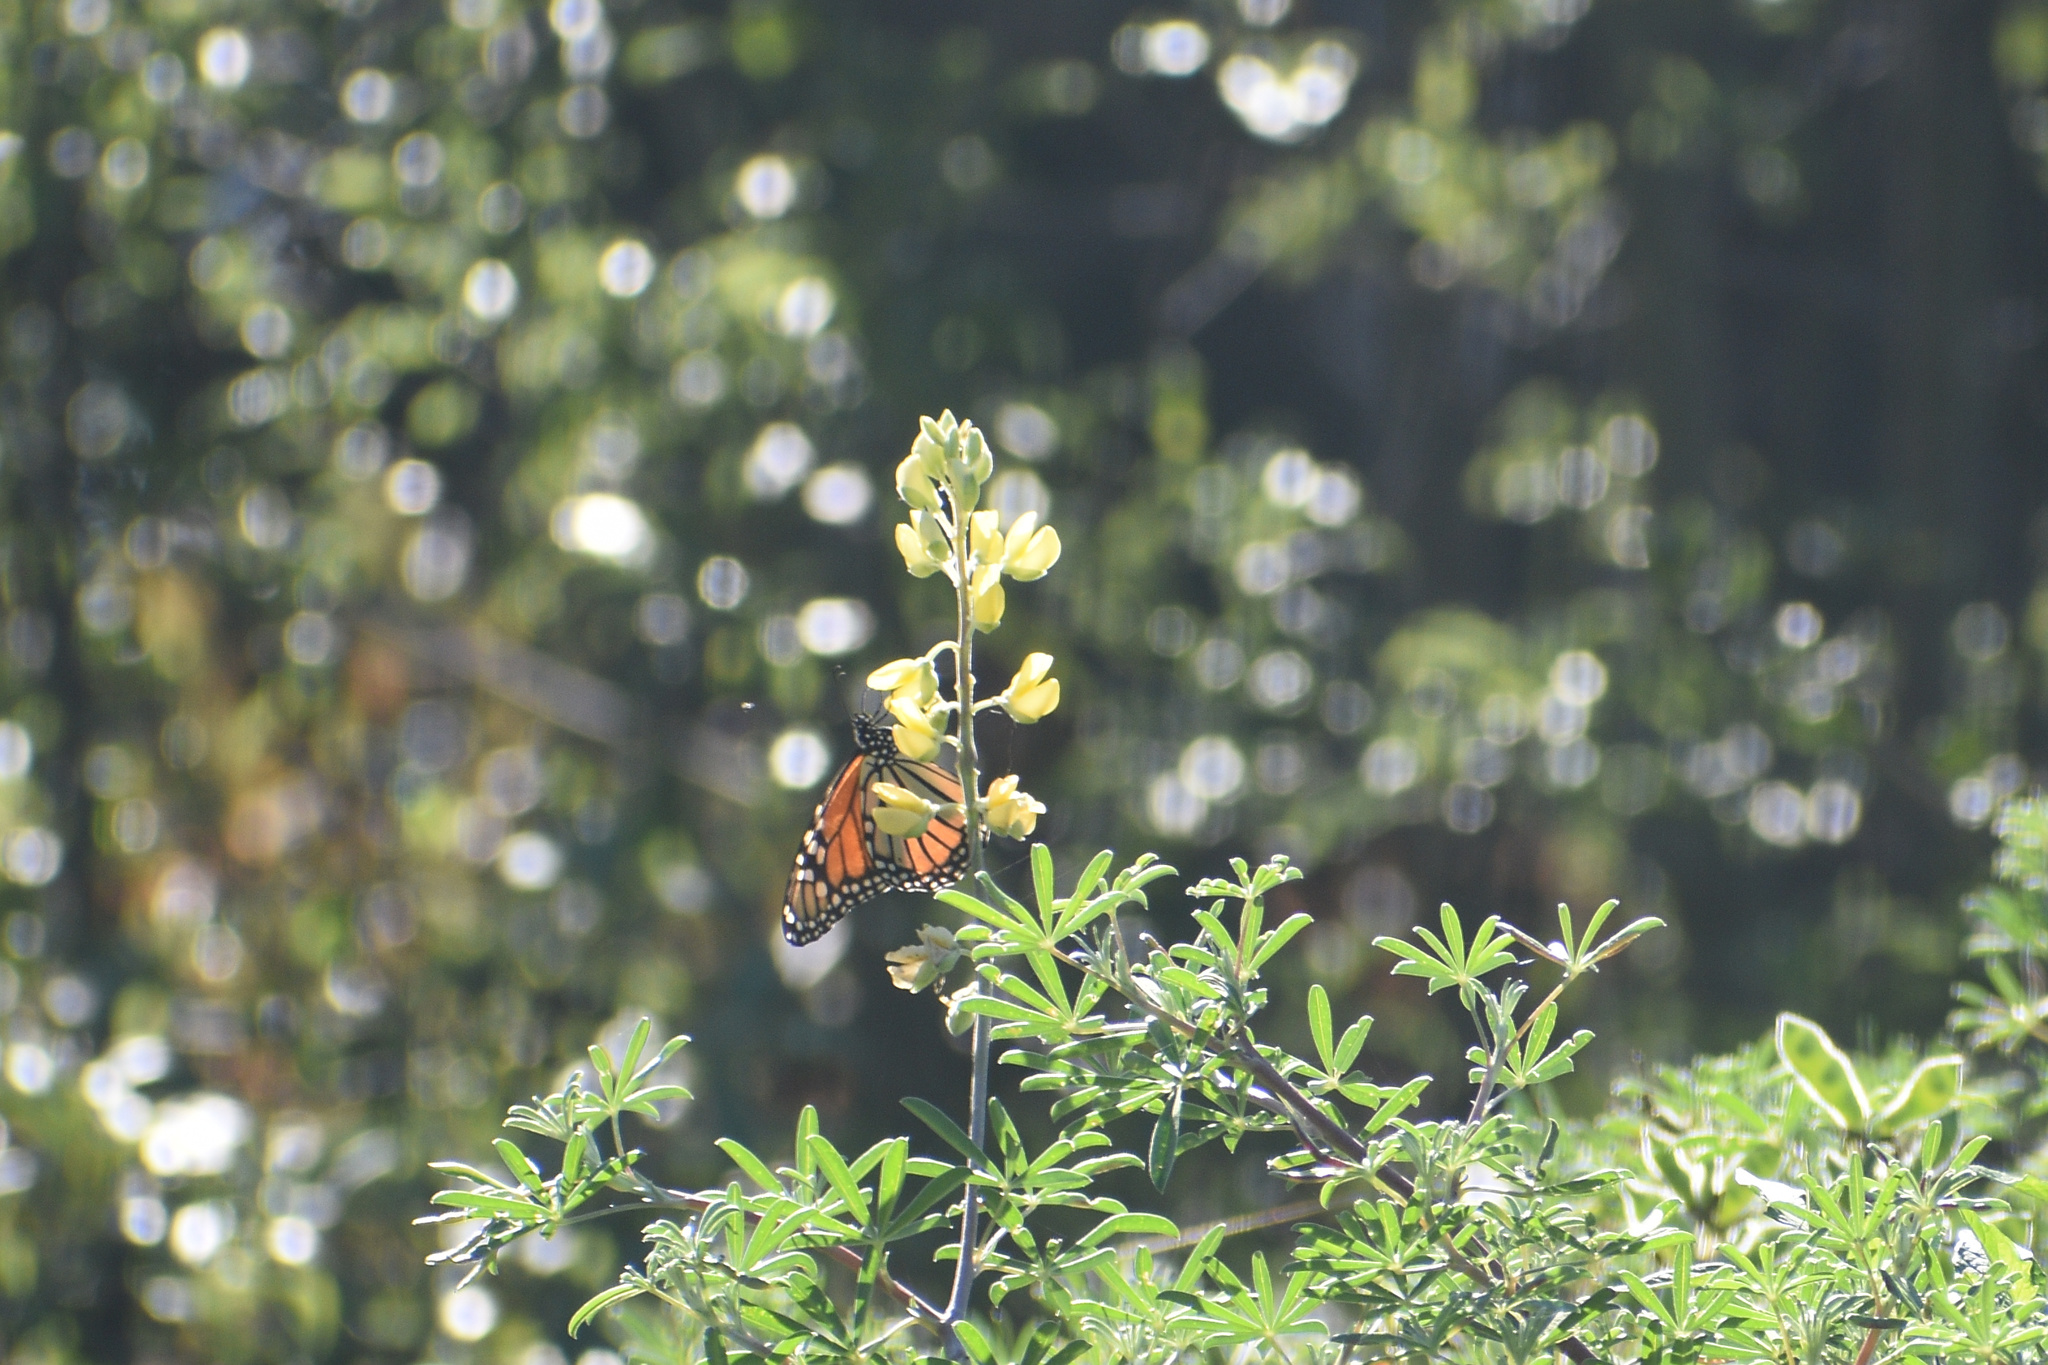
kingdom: Animalia
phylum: Arthropoda
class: Insecta
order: Lepidoptera
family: Nymphalidae
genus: Danaus
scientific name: Danaus plexippus
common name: Monarch
